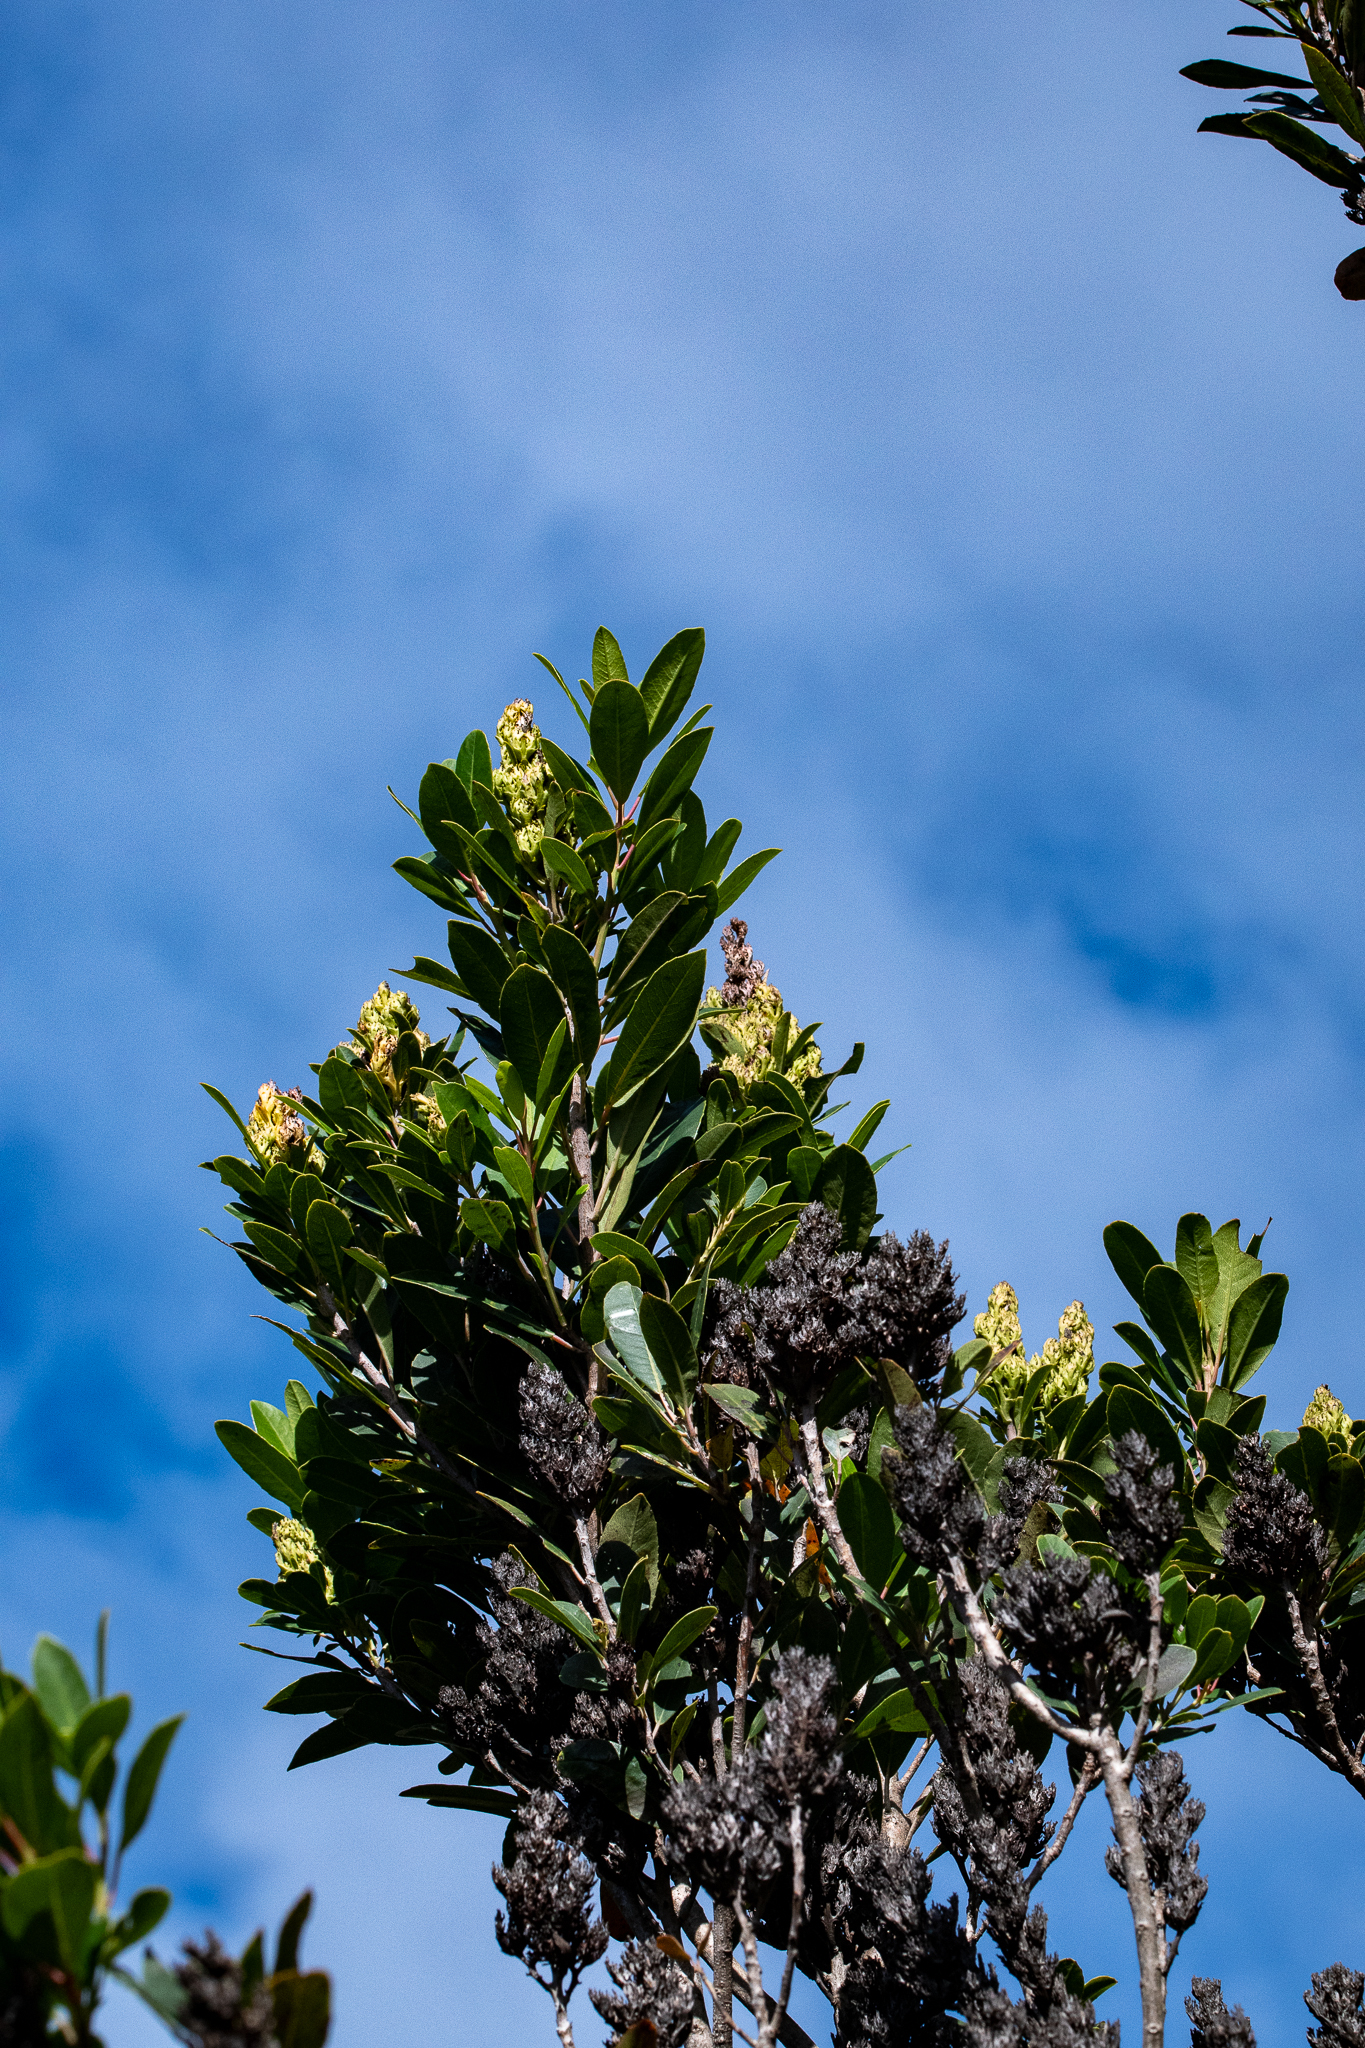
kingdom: Plantae
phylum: Tracheophyta
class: Magnoliopsida
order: Sapindales
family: Anacardiaceae
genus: Laurophyllus
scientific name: Laurophyllus capensis
